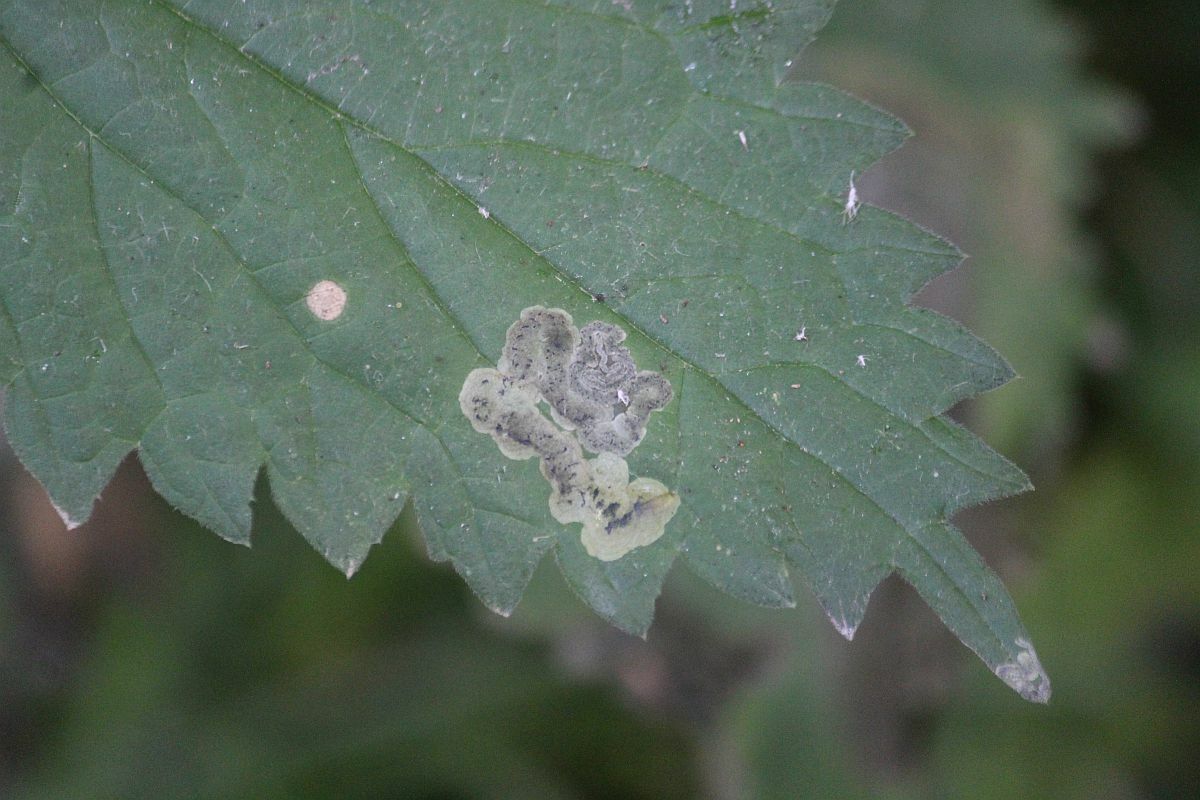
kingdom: Animalia
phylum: Arthropoda
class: Insecta
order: Diptera
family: Agromyzidae
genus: Agromyza
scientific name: Agromyza anthracina
